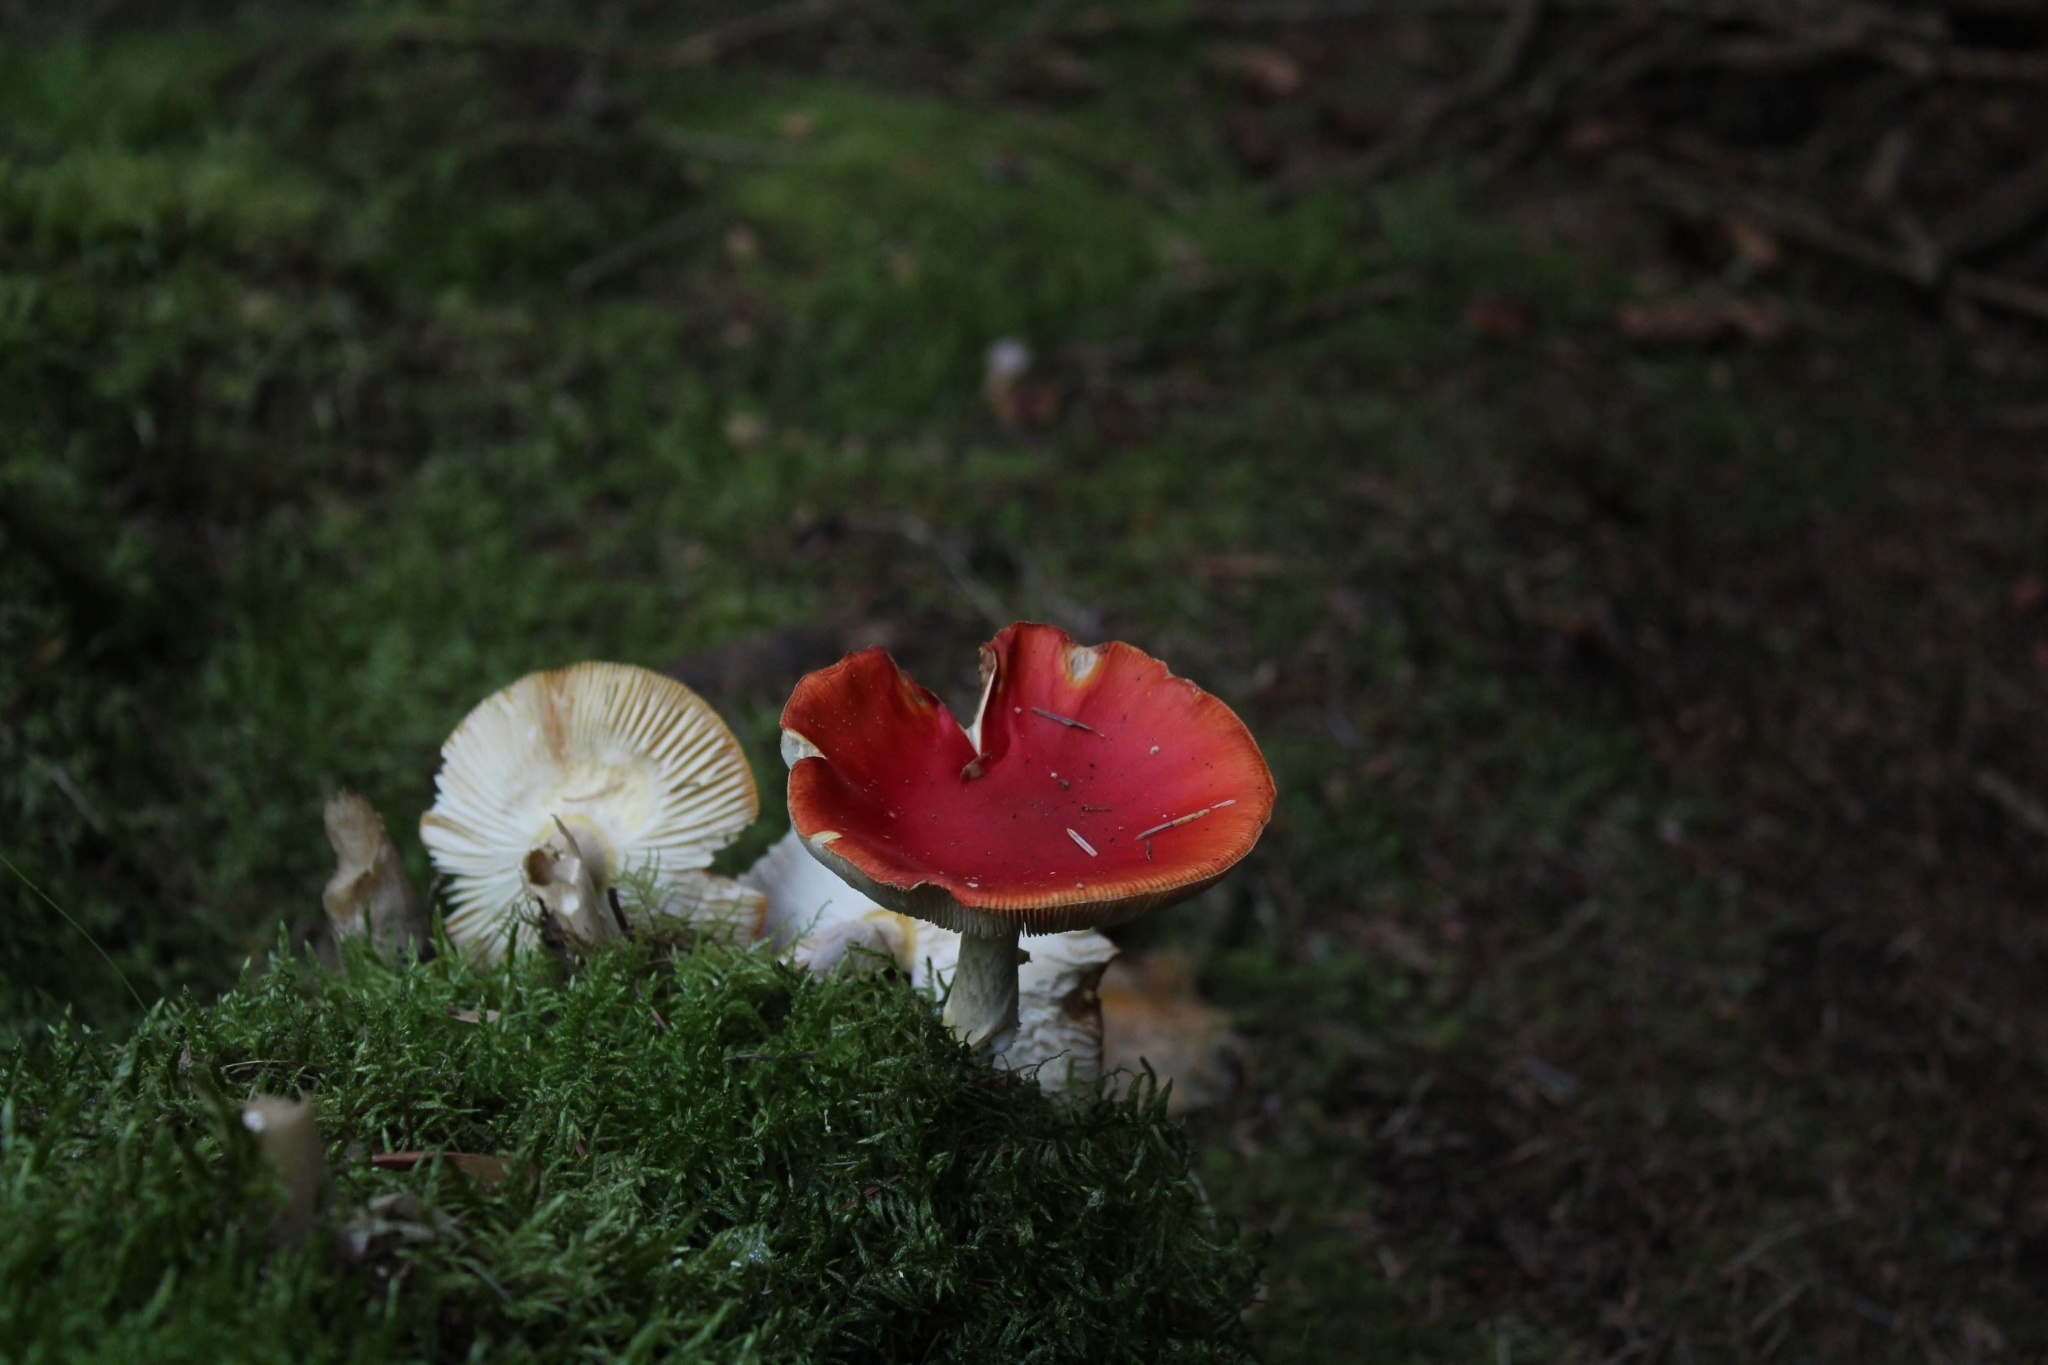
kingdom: Fungi
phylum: Basidiomycota
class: Agaricomycetes
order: Agaricales
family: Amanitaceae
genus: Amanita
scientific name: Amanita muscaria
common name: Fly agaric
